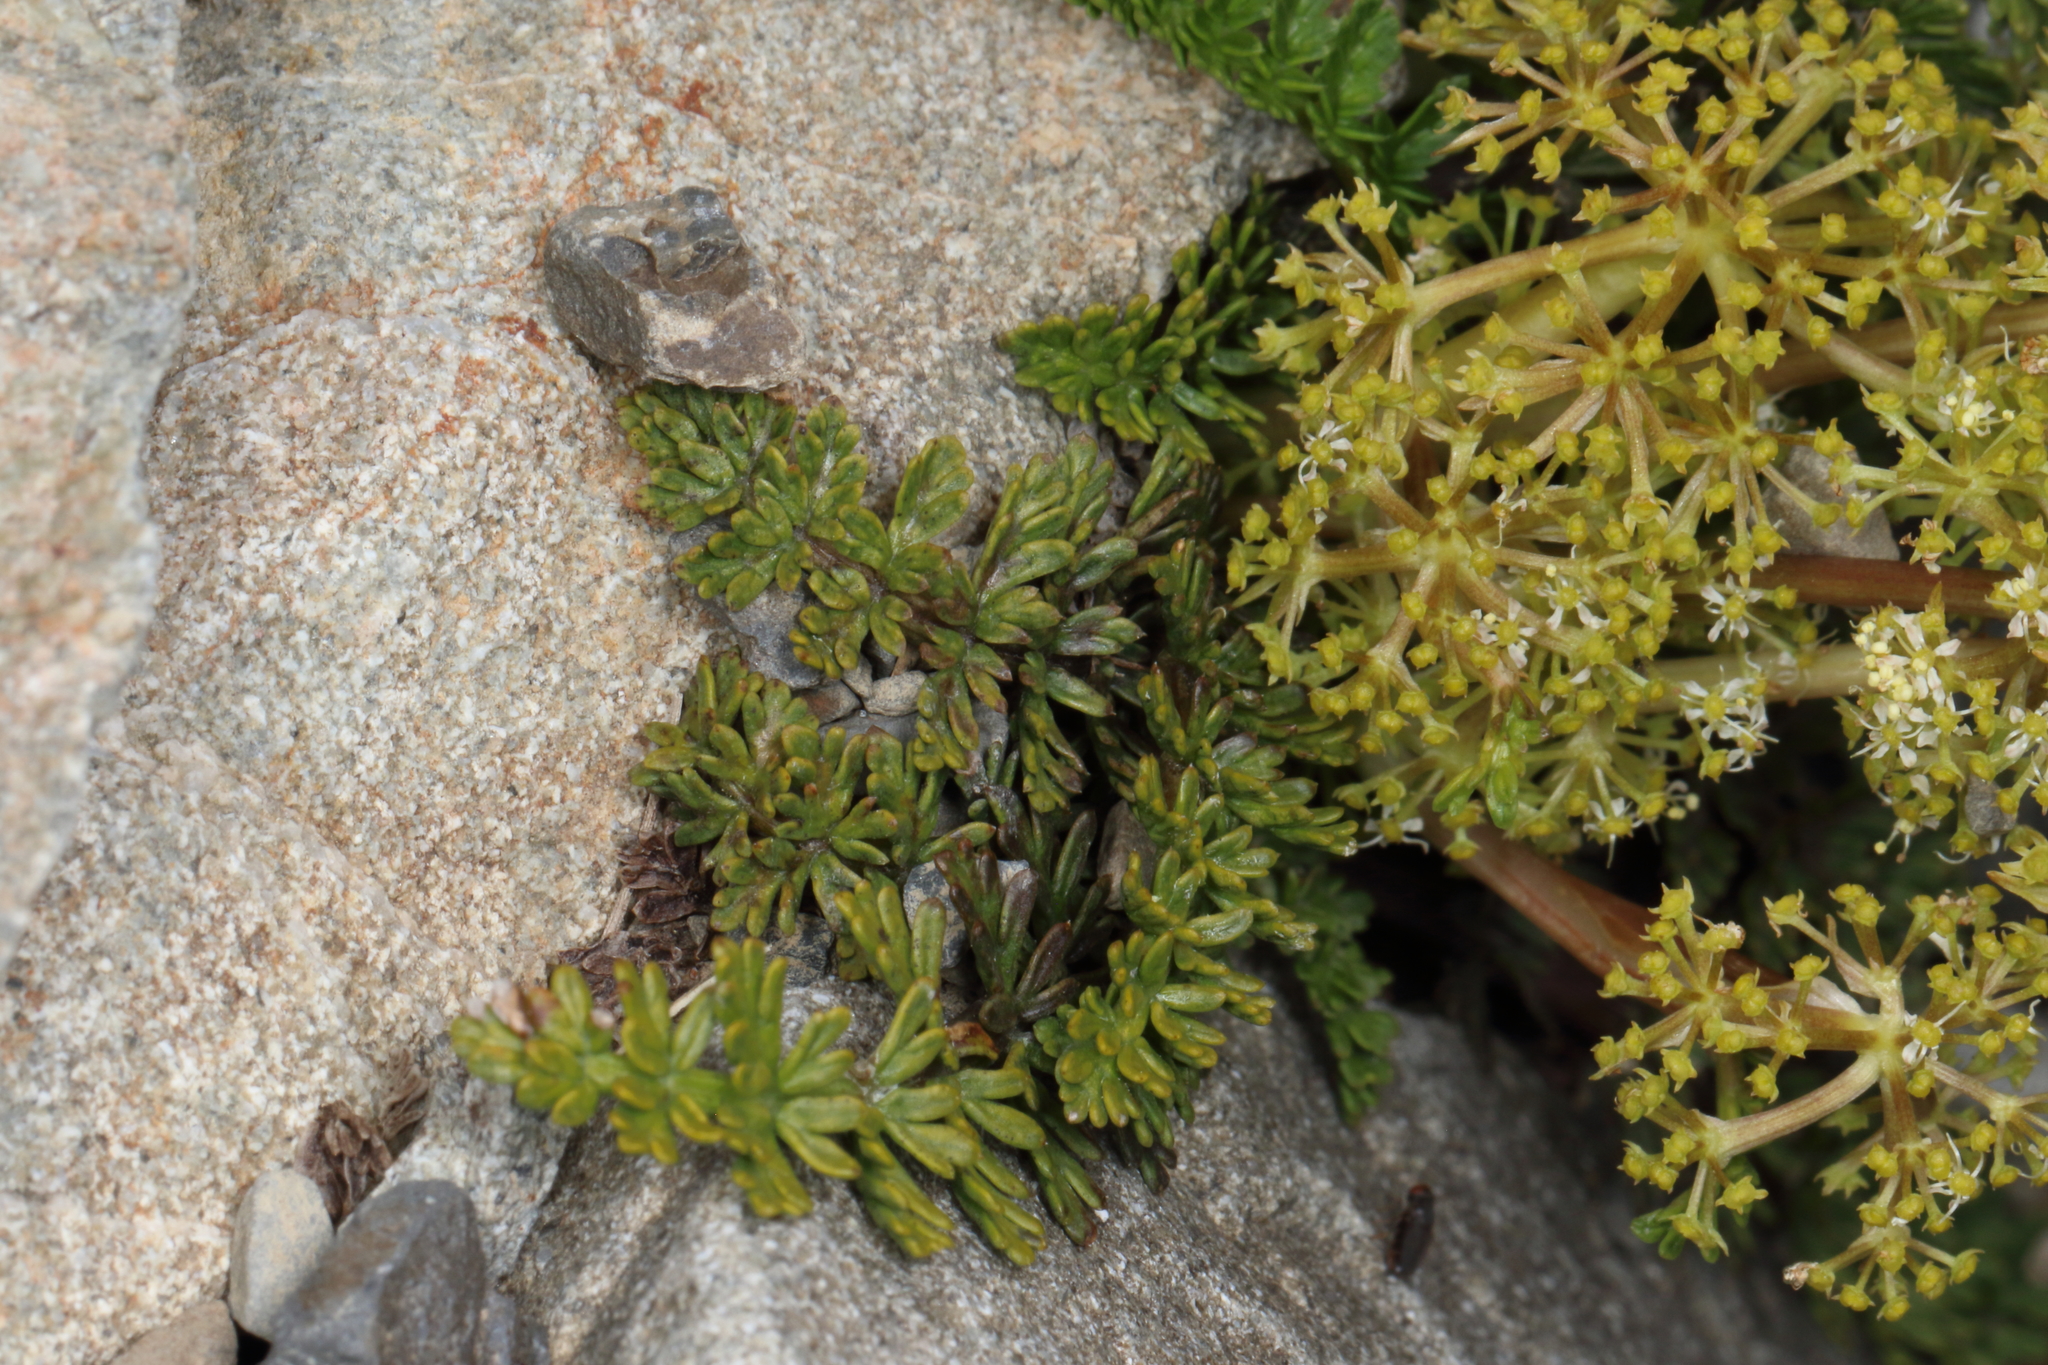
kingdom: Plantae
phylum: Tracheophyta
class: Magnoliopsida
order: Apiales
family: Apiaceae
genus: Anisotome
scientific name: Anisotome flexuosa
